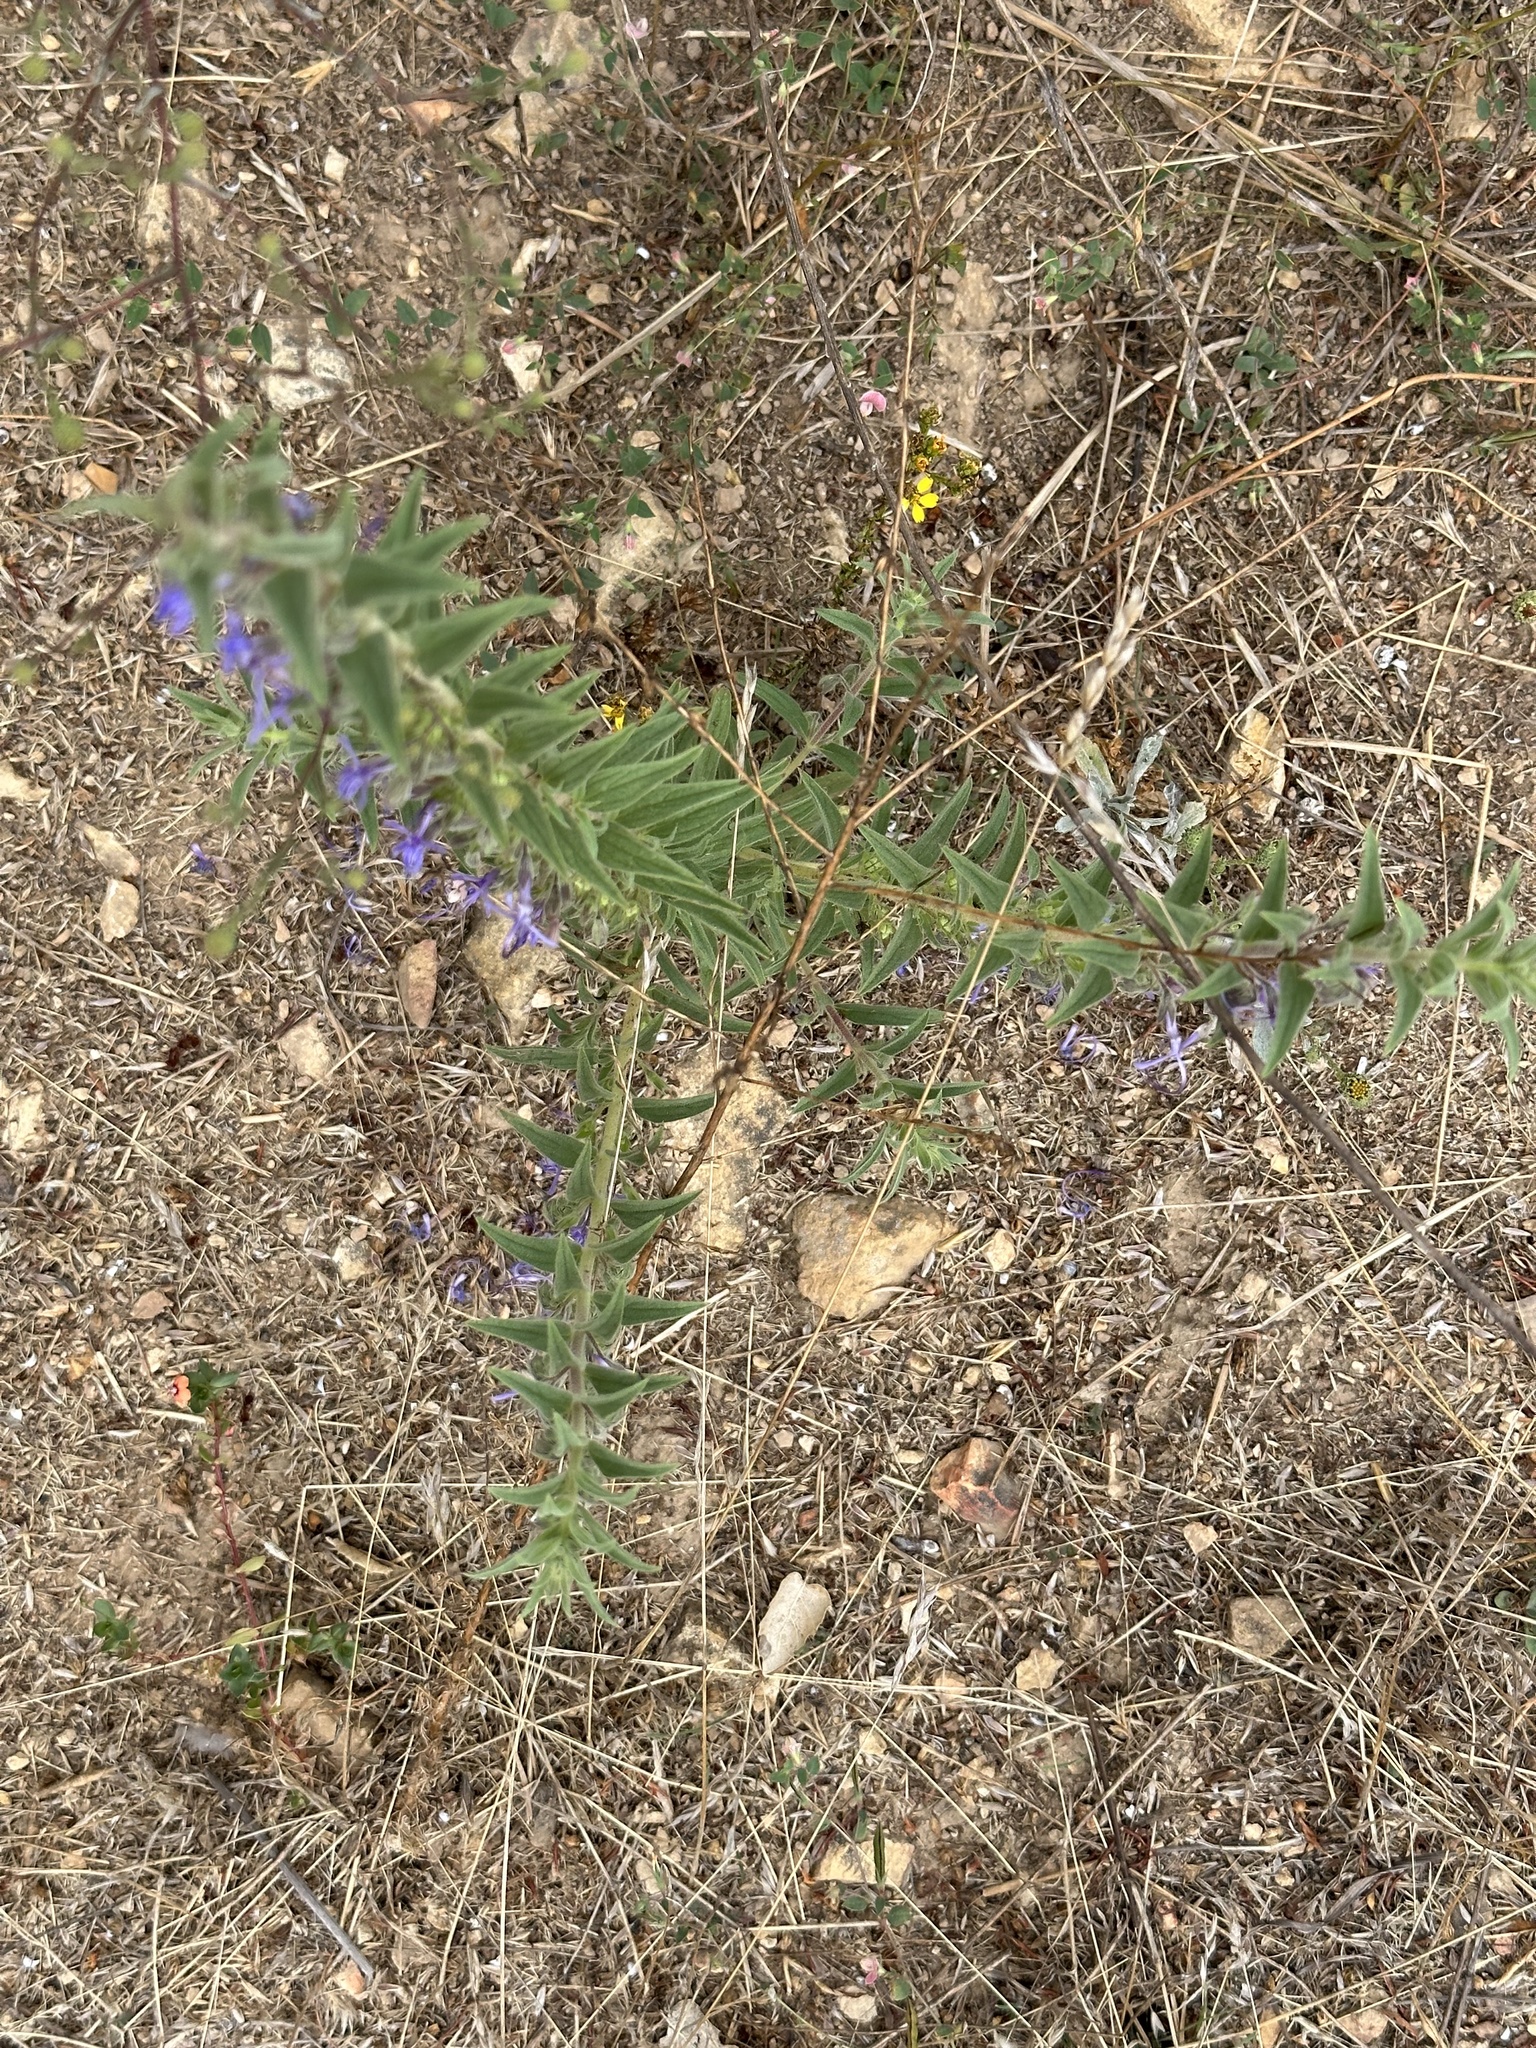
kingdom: Plantae
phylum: Tracheophyta
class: Magnoliopsida
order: Lamiales
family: Lamiaceae
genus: Trichostema
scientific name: Trichostema lanceolatum
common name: Vinegar-weed
